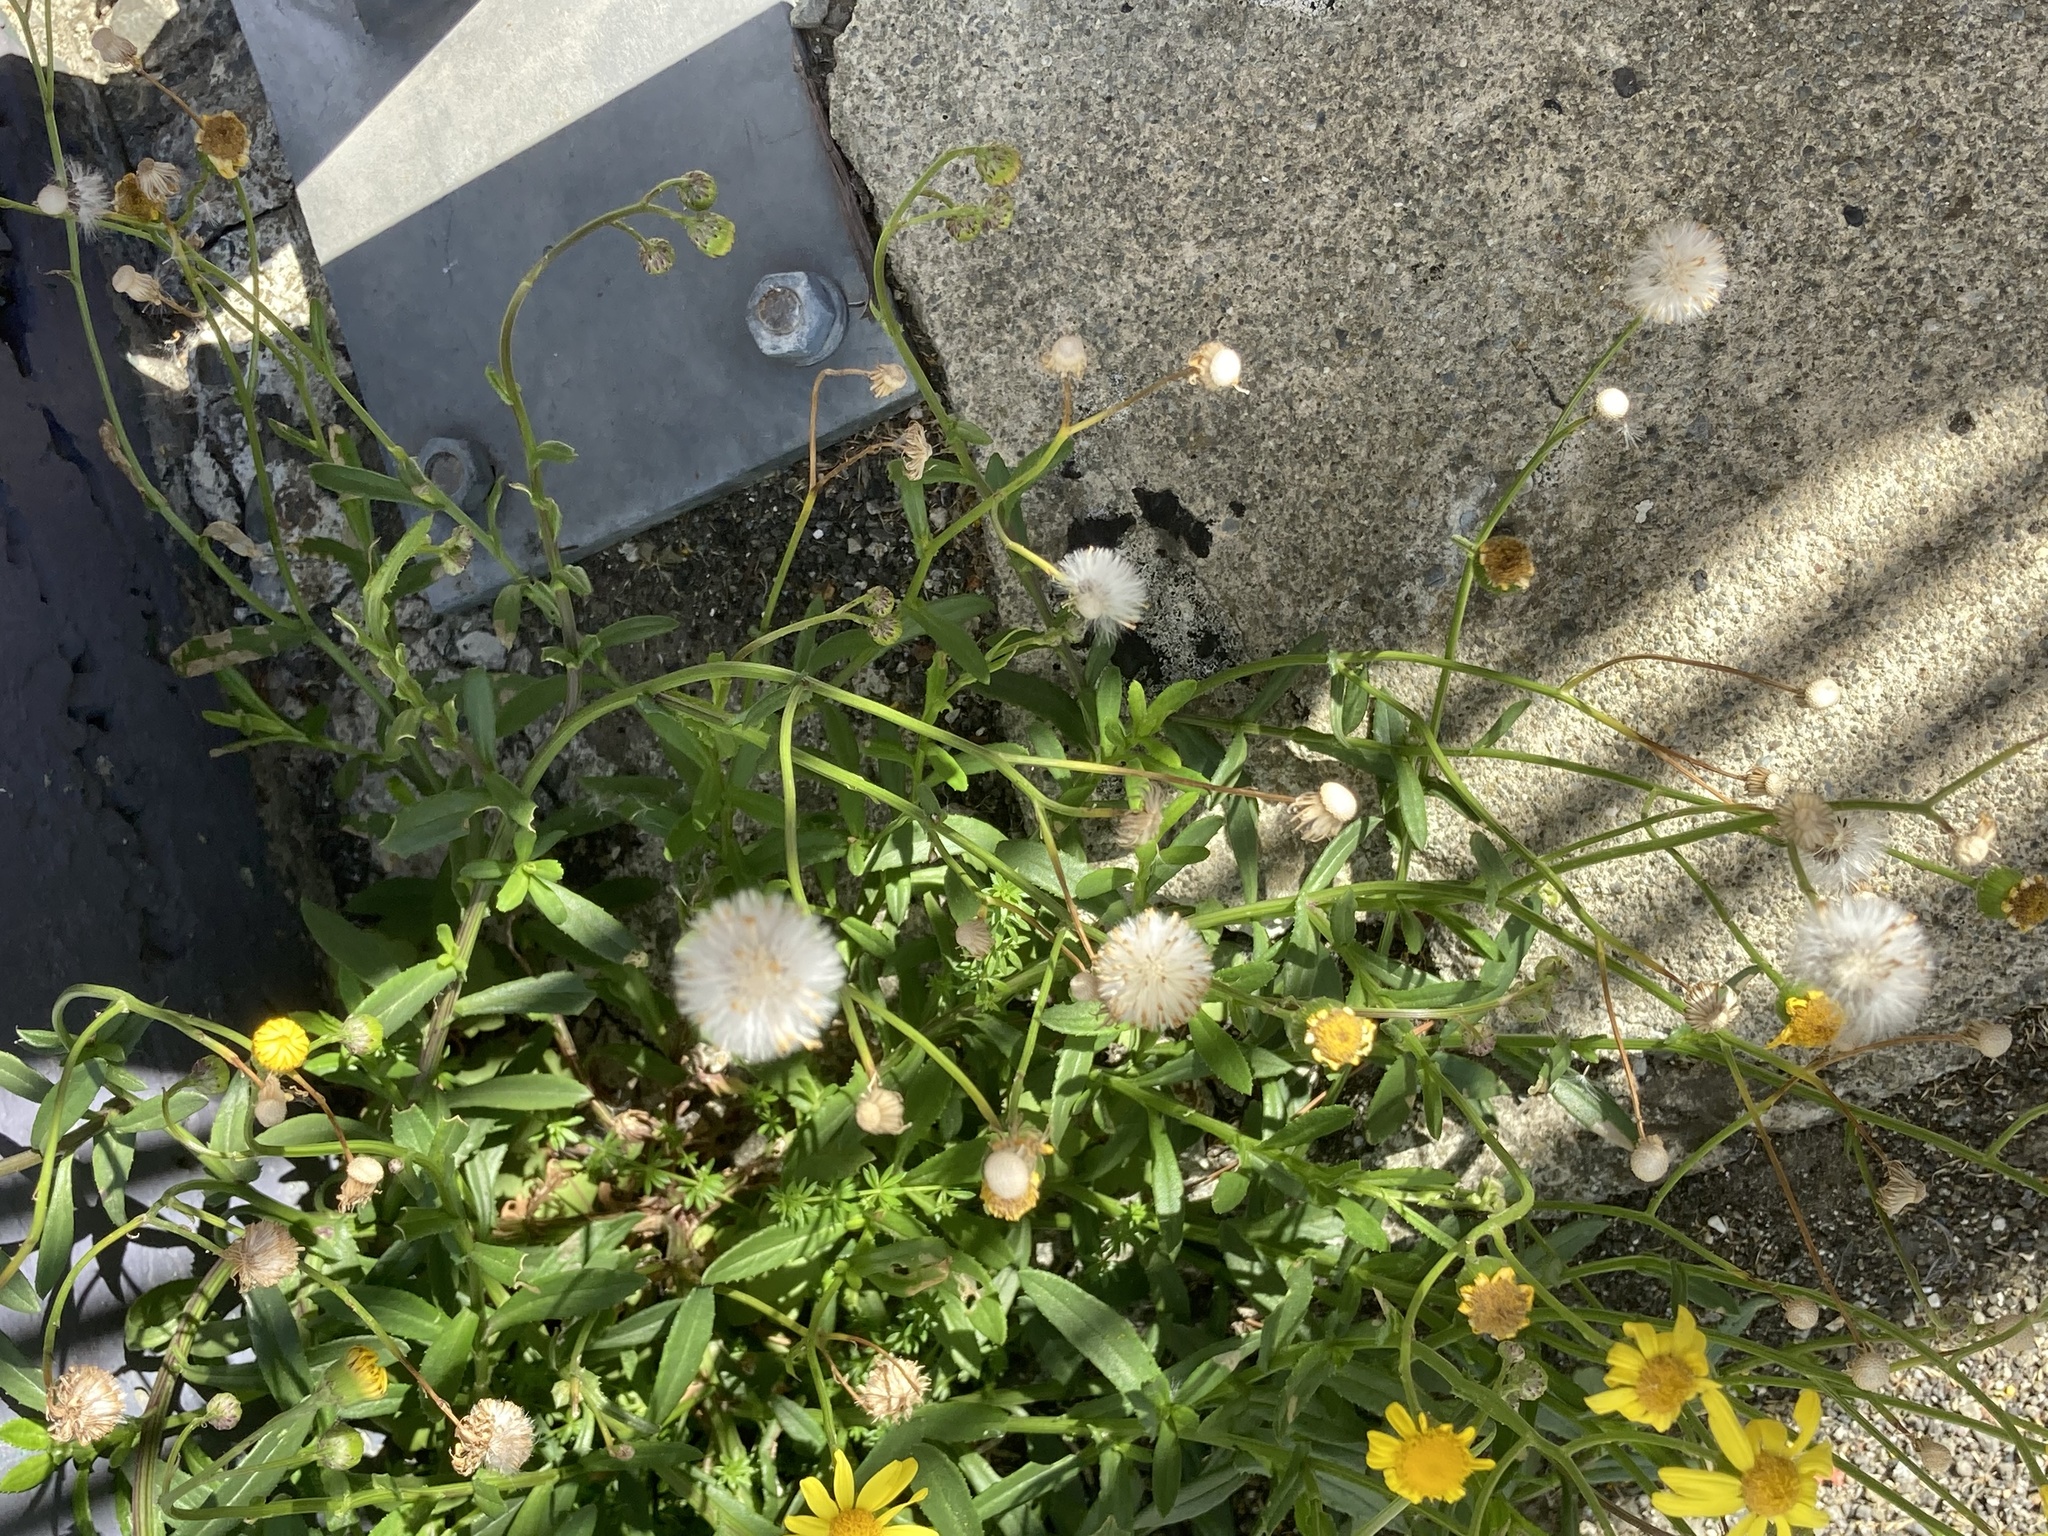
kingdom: Plantae
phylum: Tracheophyta
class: Magnoliopsida
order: Asterales
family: Asteraceae
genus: Senecio
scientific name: Senecio skirrhodon
